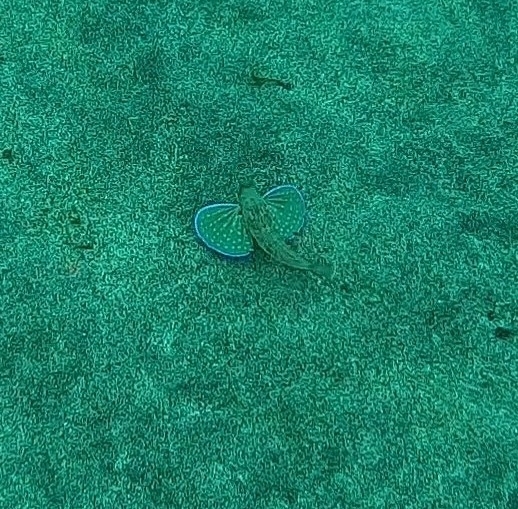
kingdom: Animalia
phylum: Chordata
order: Scorpaeniformes
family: Triglidae
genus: Chelidonichthys
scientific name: Chelidonichthys lastoviza
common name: Streaked gurnard
